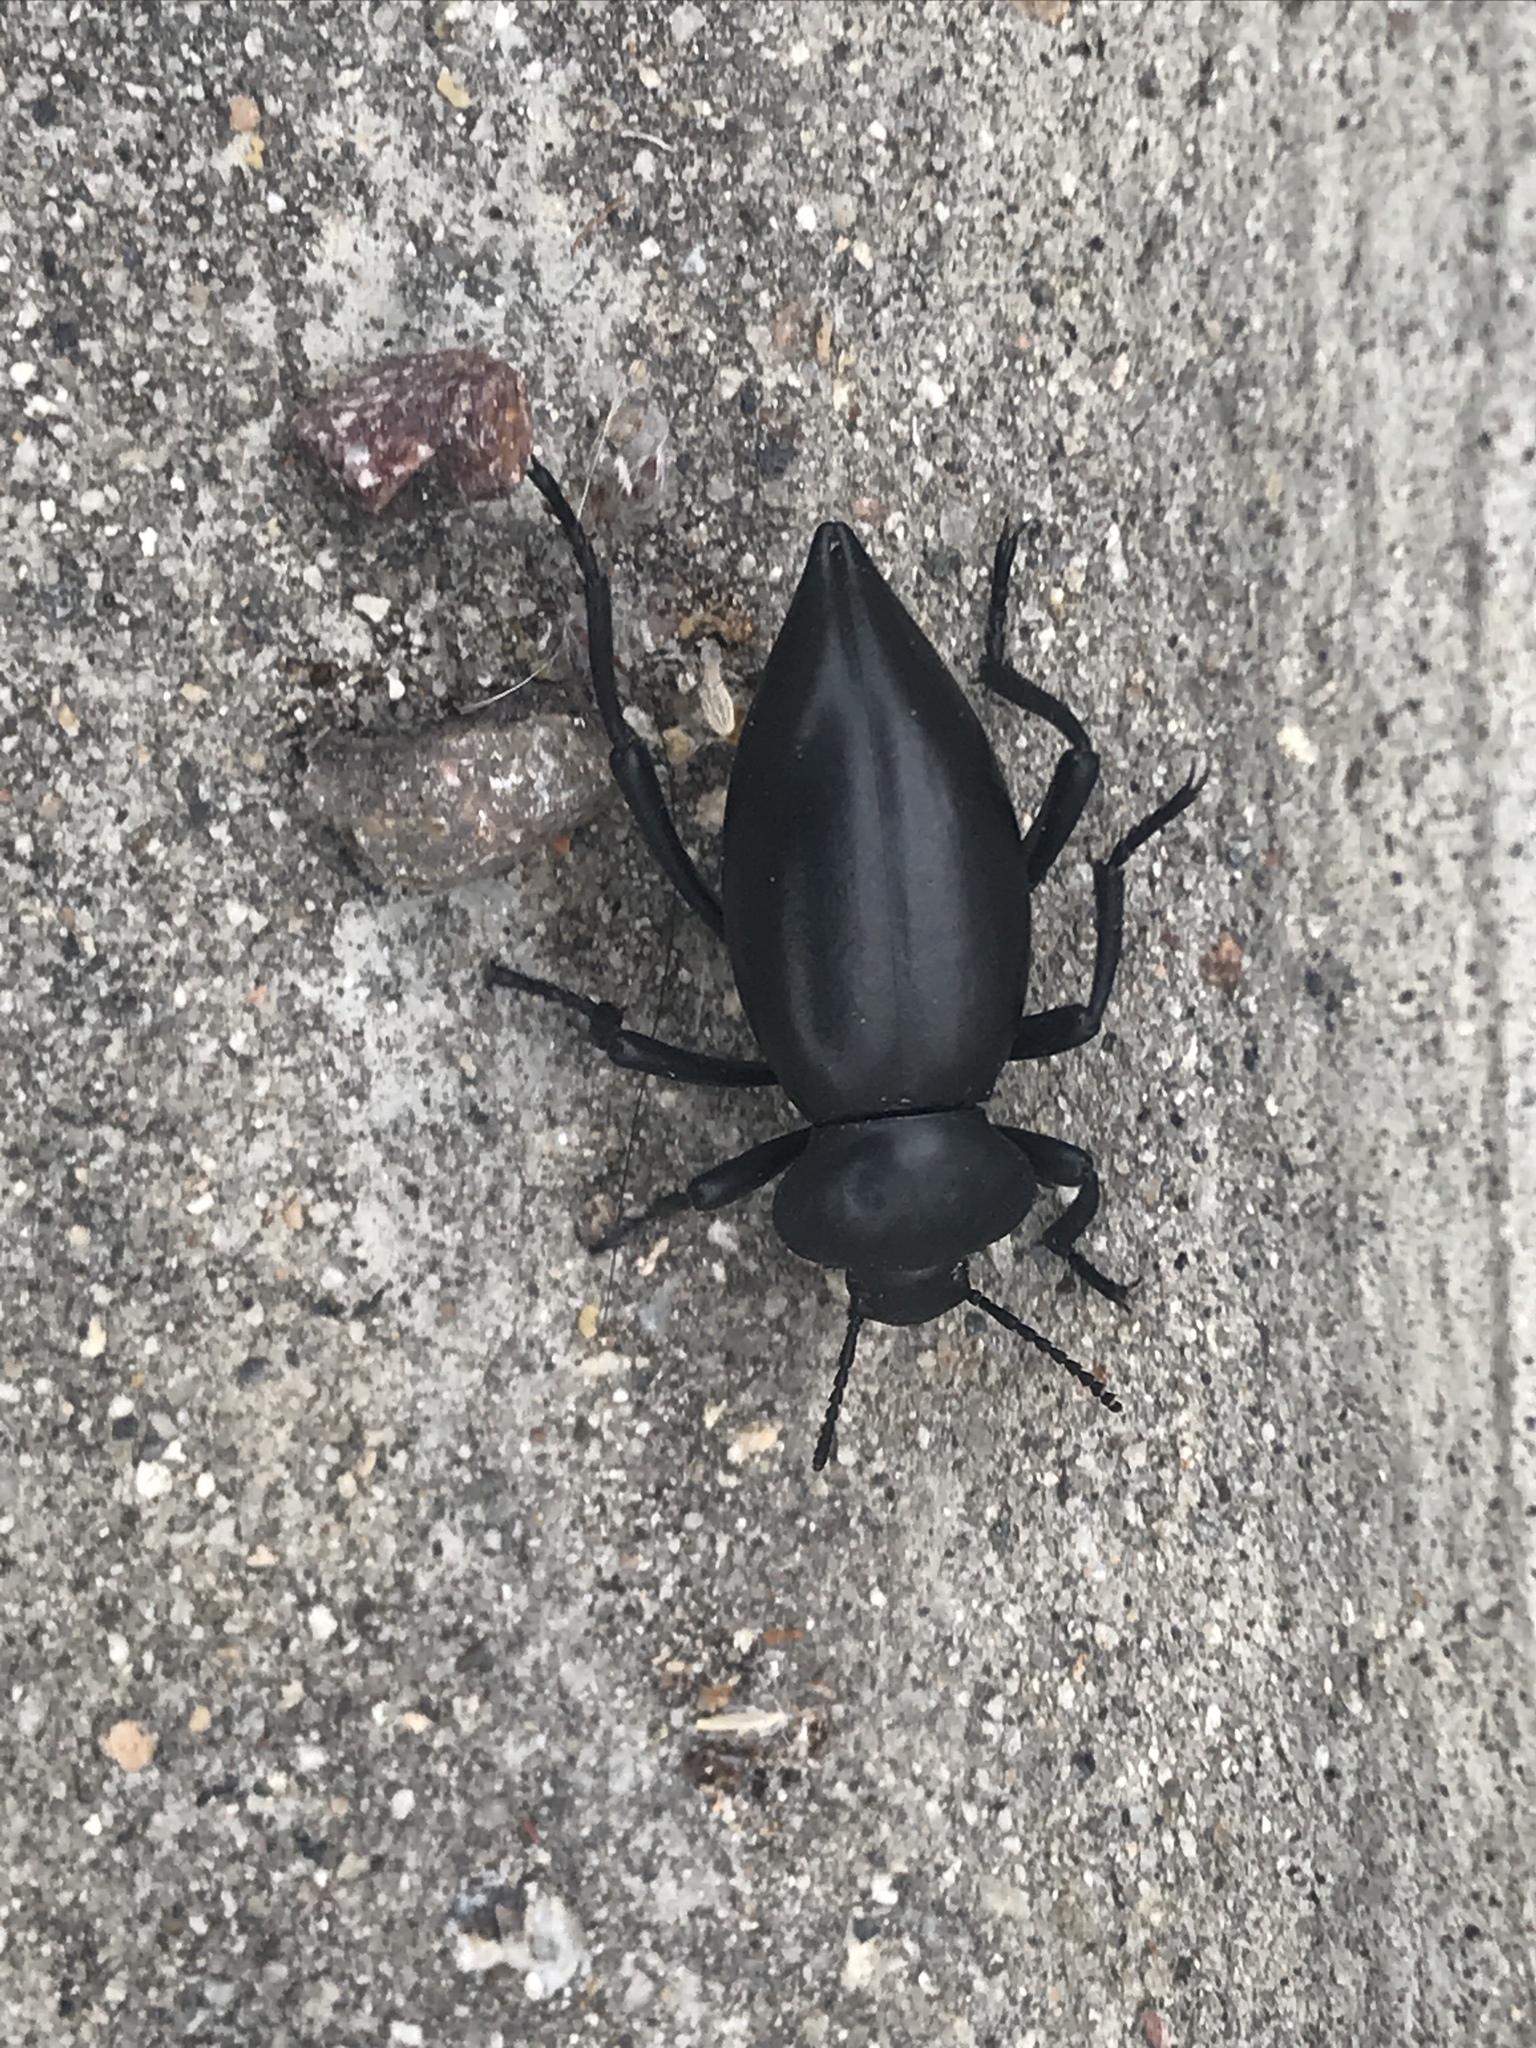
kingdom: Animalia
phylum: Arthropoda
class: Insecta
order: Coleoptera
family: Tenebrionidae
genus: Eleodes
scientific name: Eleodes acuticauda
